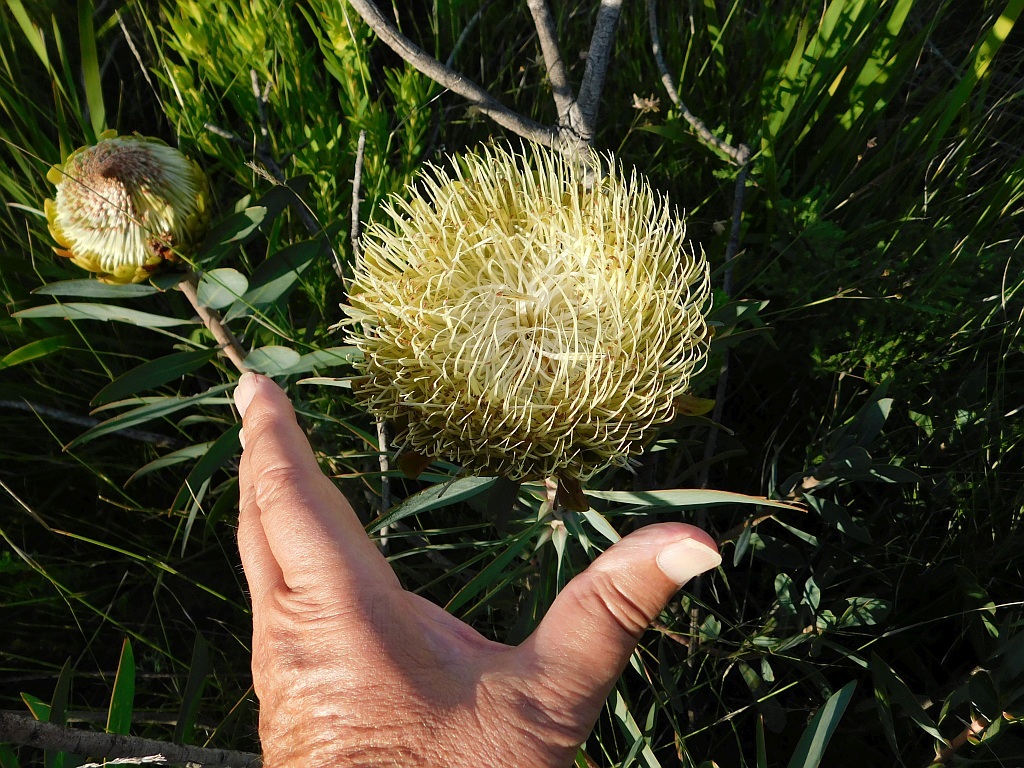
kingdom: Plantae
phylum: Tracheophyta
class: Magnoliopsida
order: Proteales
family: Proteaceae
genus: Protea
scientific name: Protea nitida
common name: Tree protea
